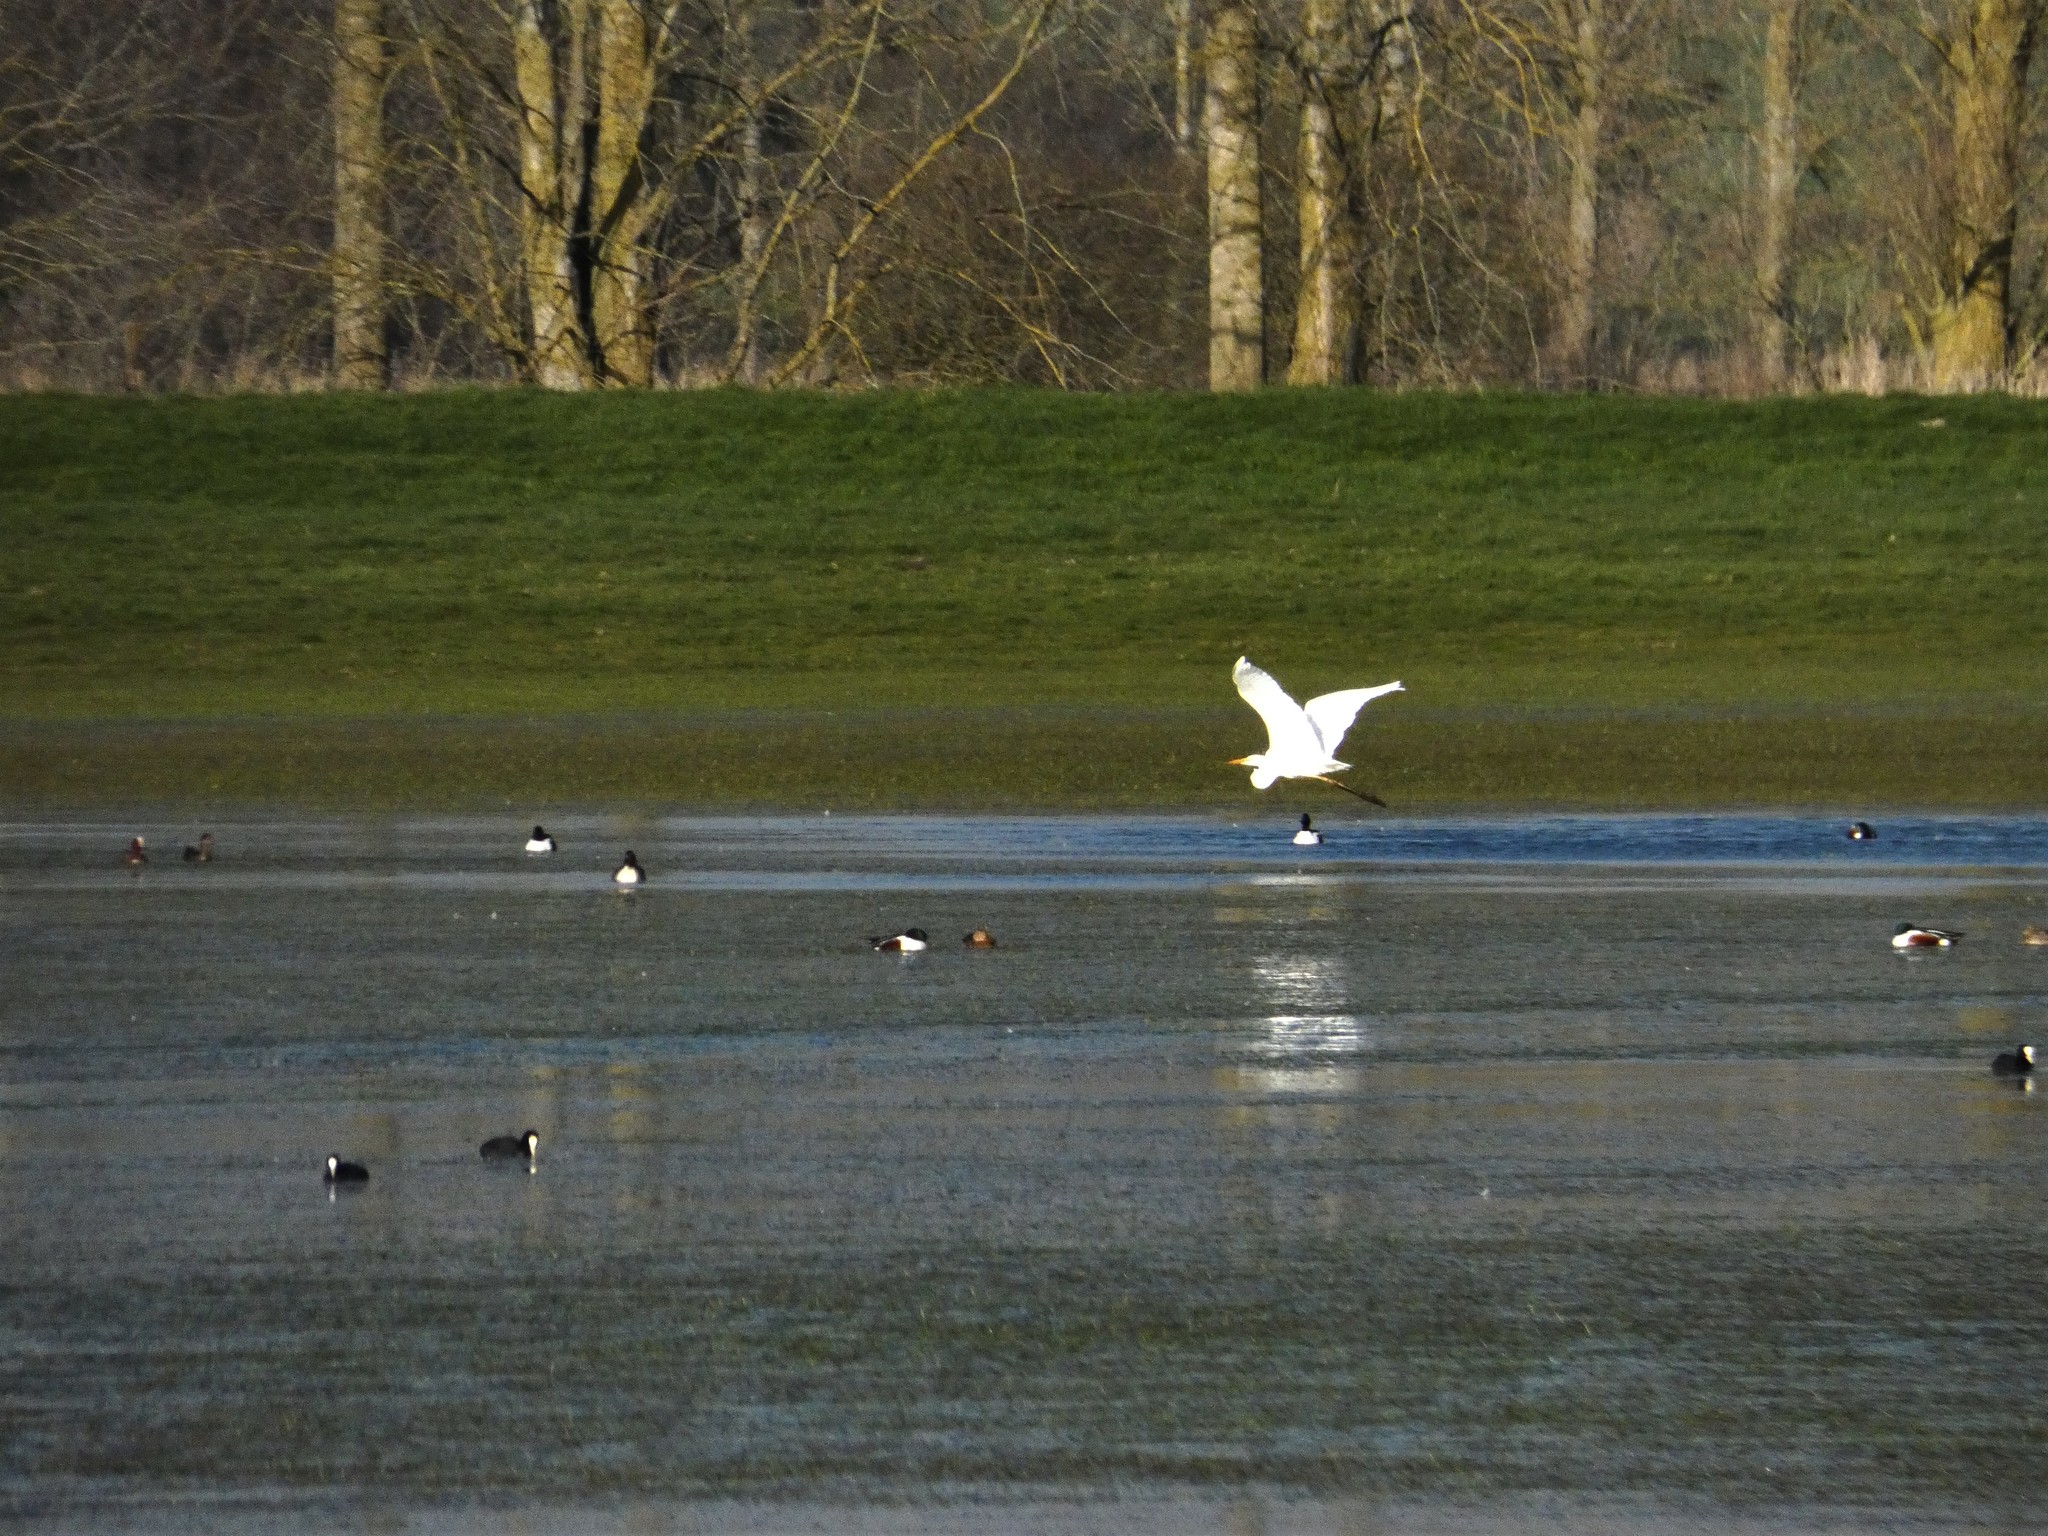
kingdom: Animalia
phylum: Chordata
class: Aves
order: Pelecaniformes
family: Ardeidae
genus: Ardea
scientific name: Ardea alba
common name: Great egret
